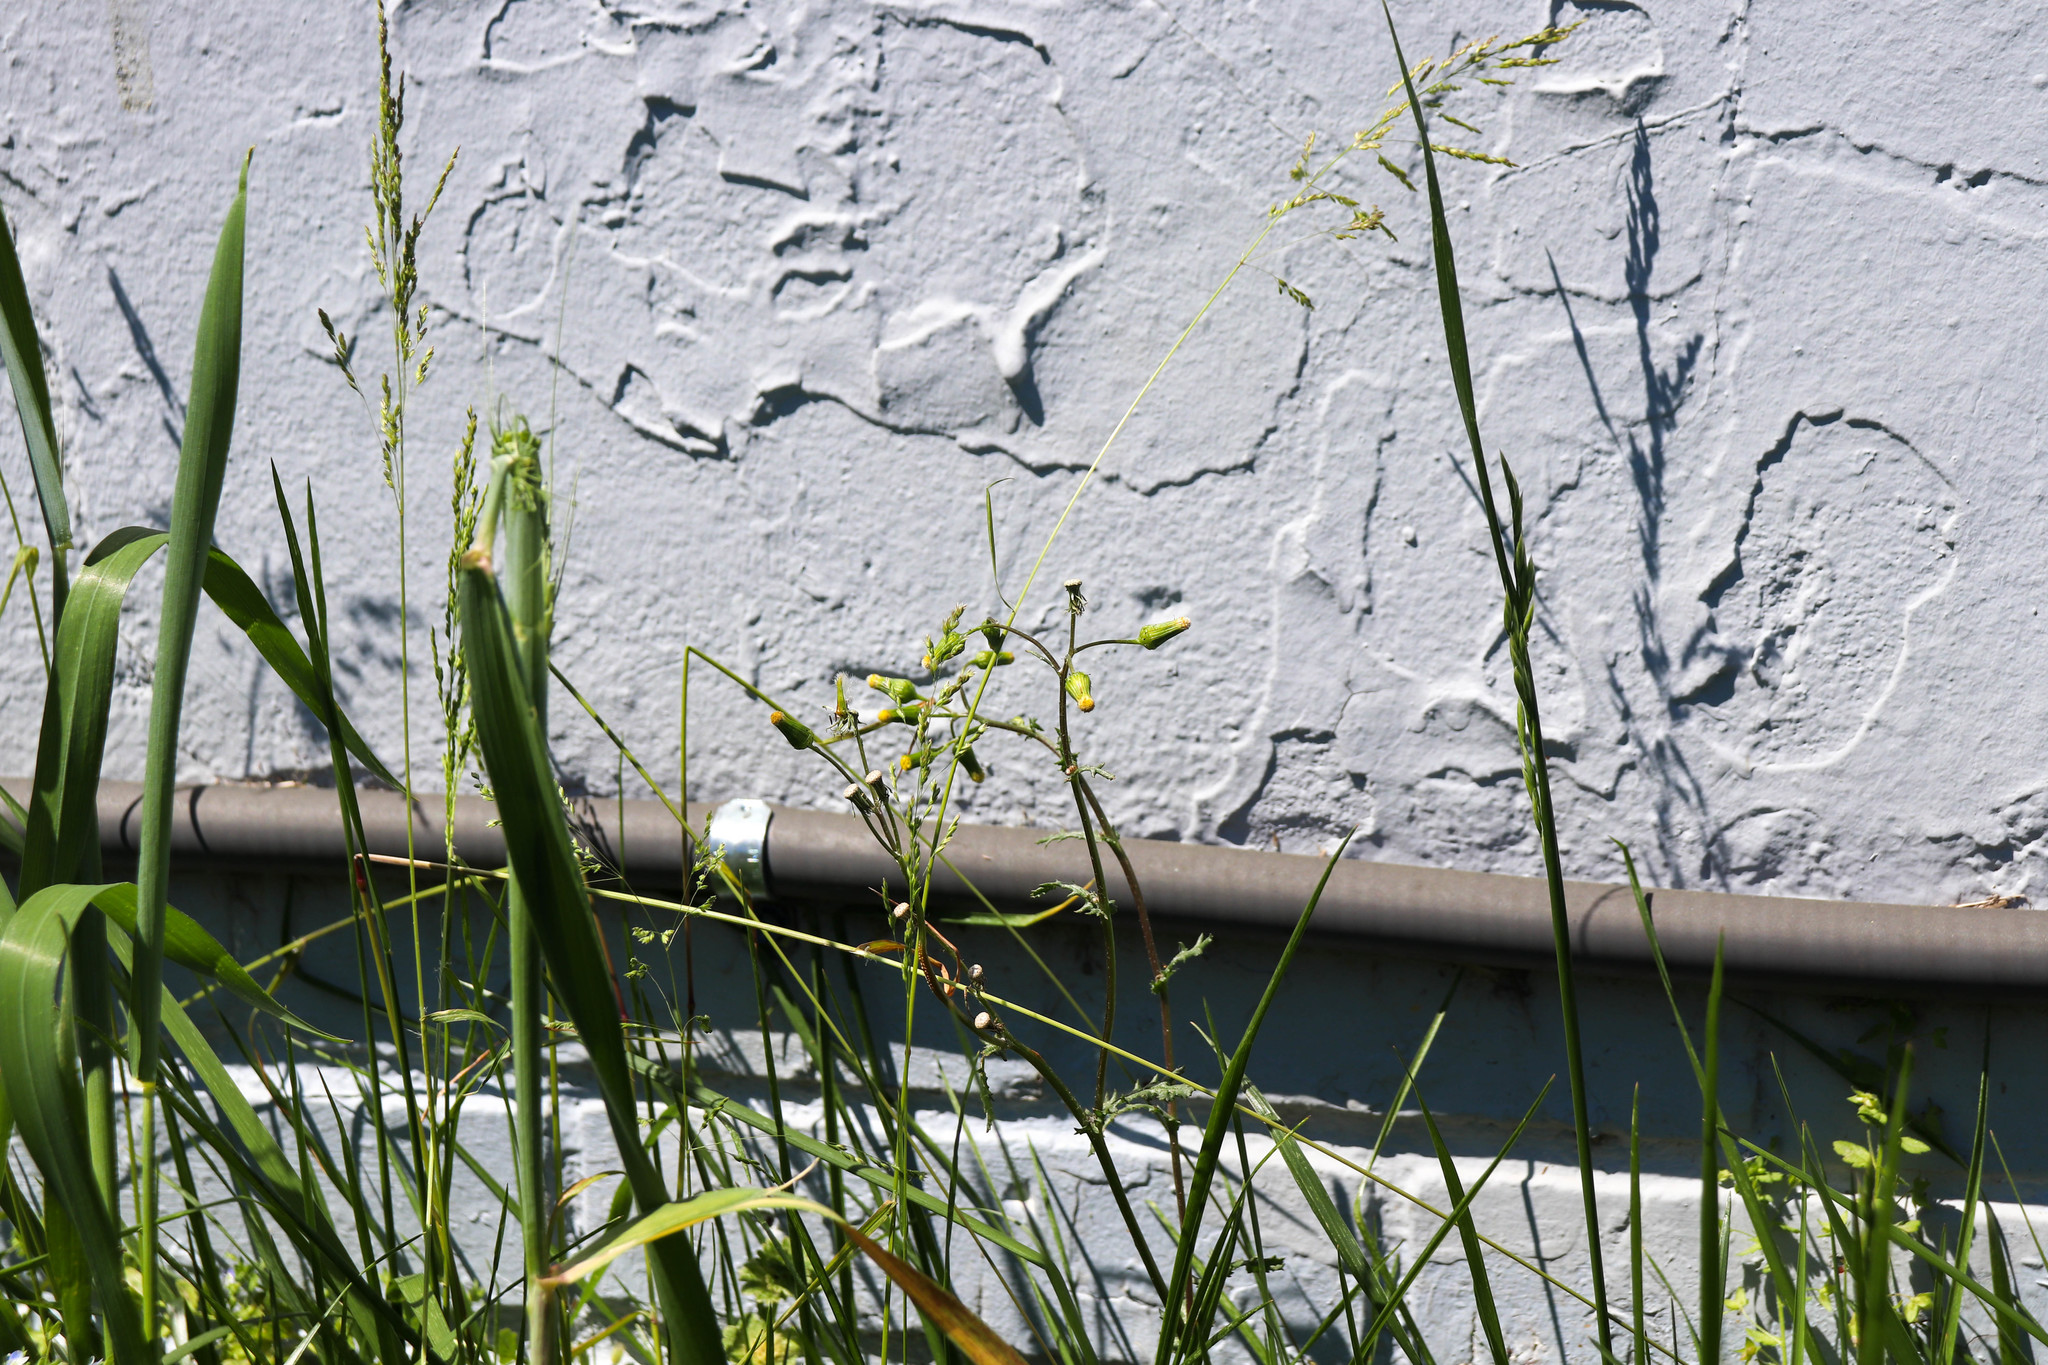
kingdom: Plantae
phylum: Tracheophyta
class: Magnoliopsida
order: Asterales
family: Asteraceae
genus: Senecio
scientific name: Senecio vulgaris
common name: Old-man-in-the-spring
